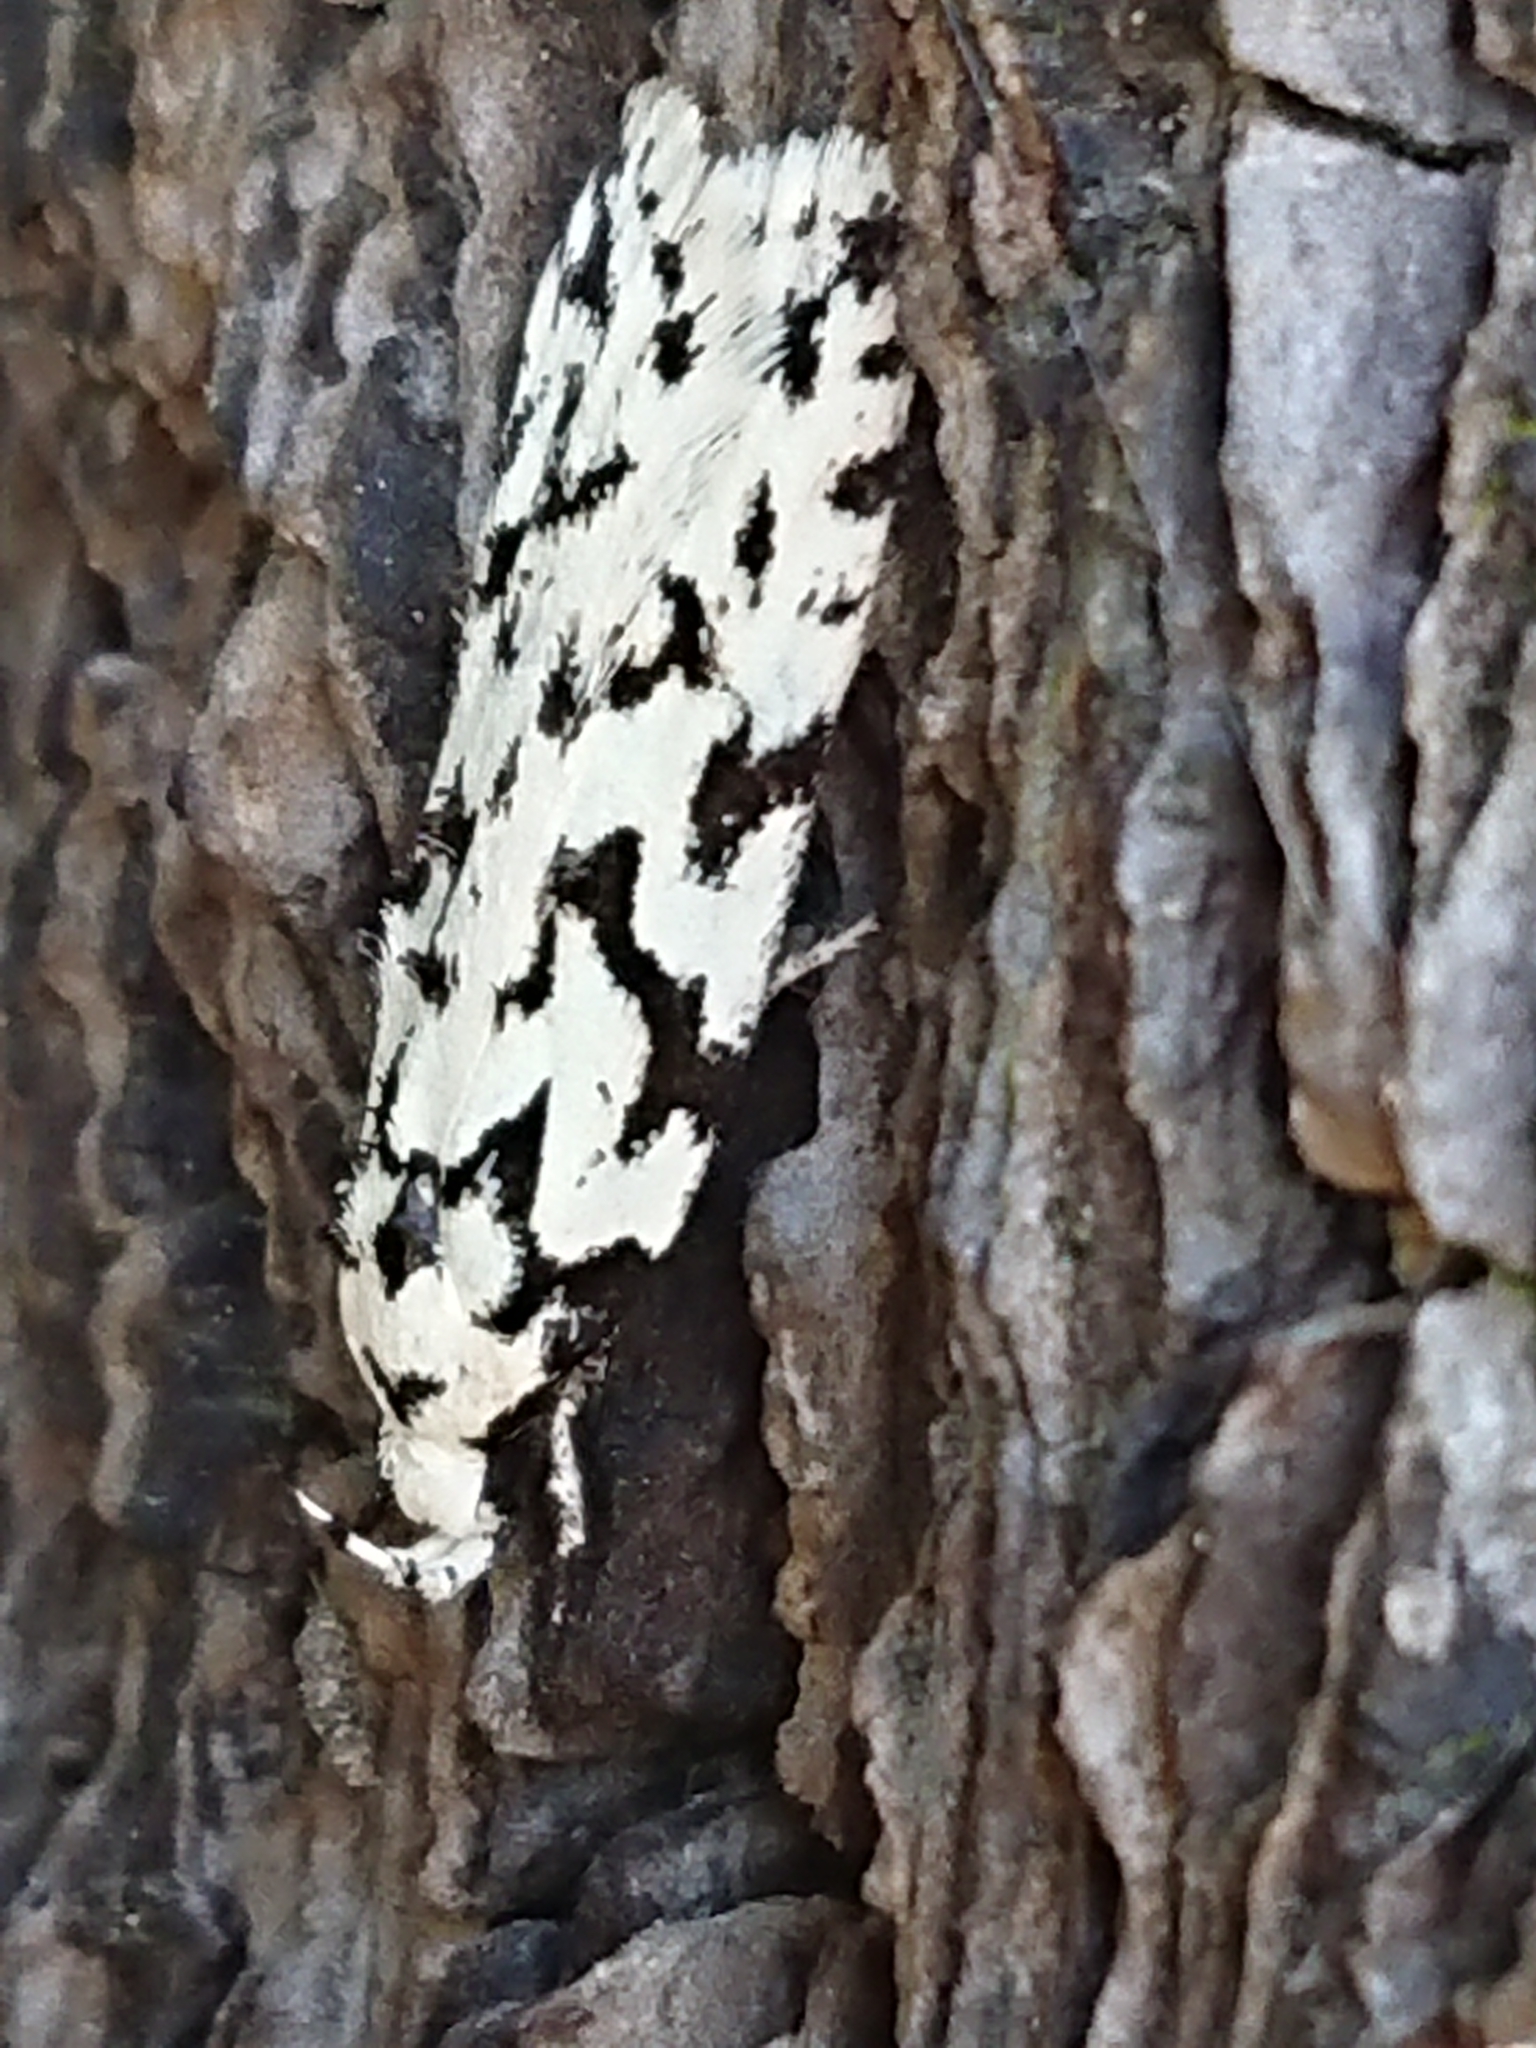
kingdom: Animalia
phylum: Arthropoda
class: Insecta
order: Lepidoptera
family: Oecophoridae
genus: Izatha
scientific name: Izatha katadiktya
